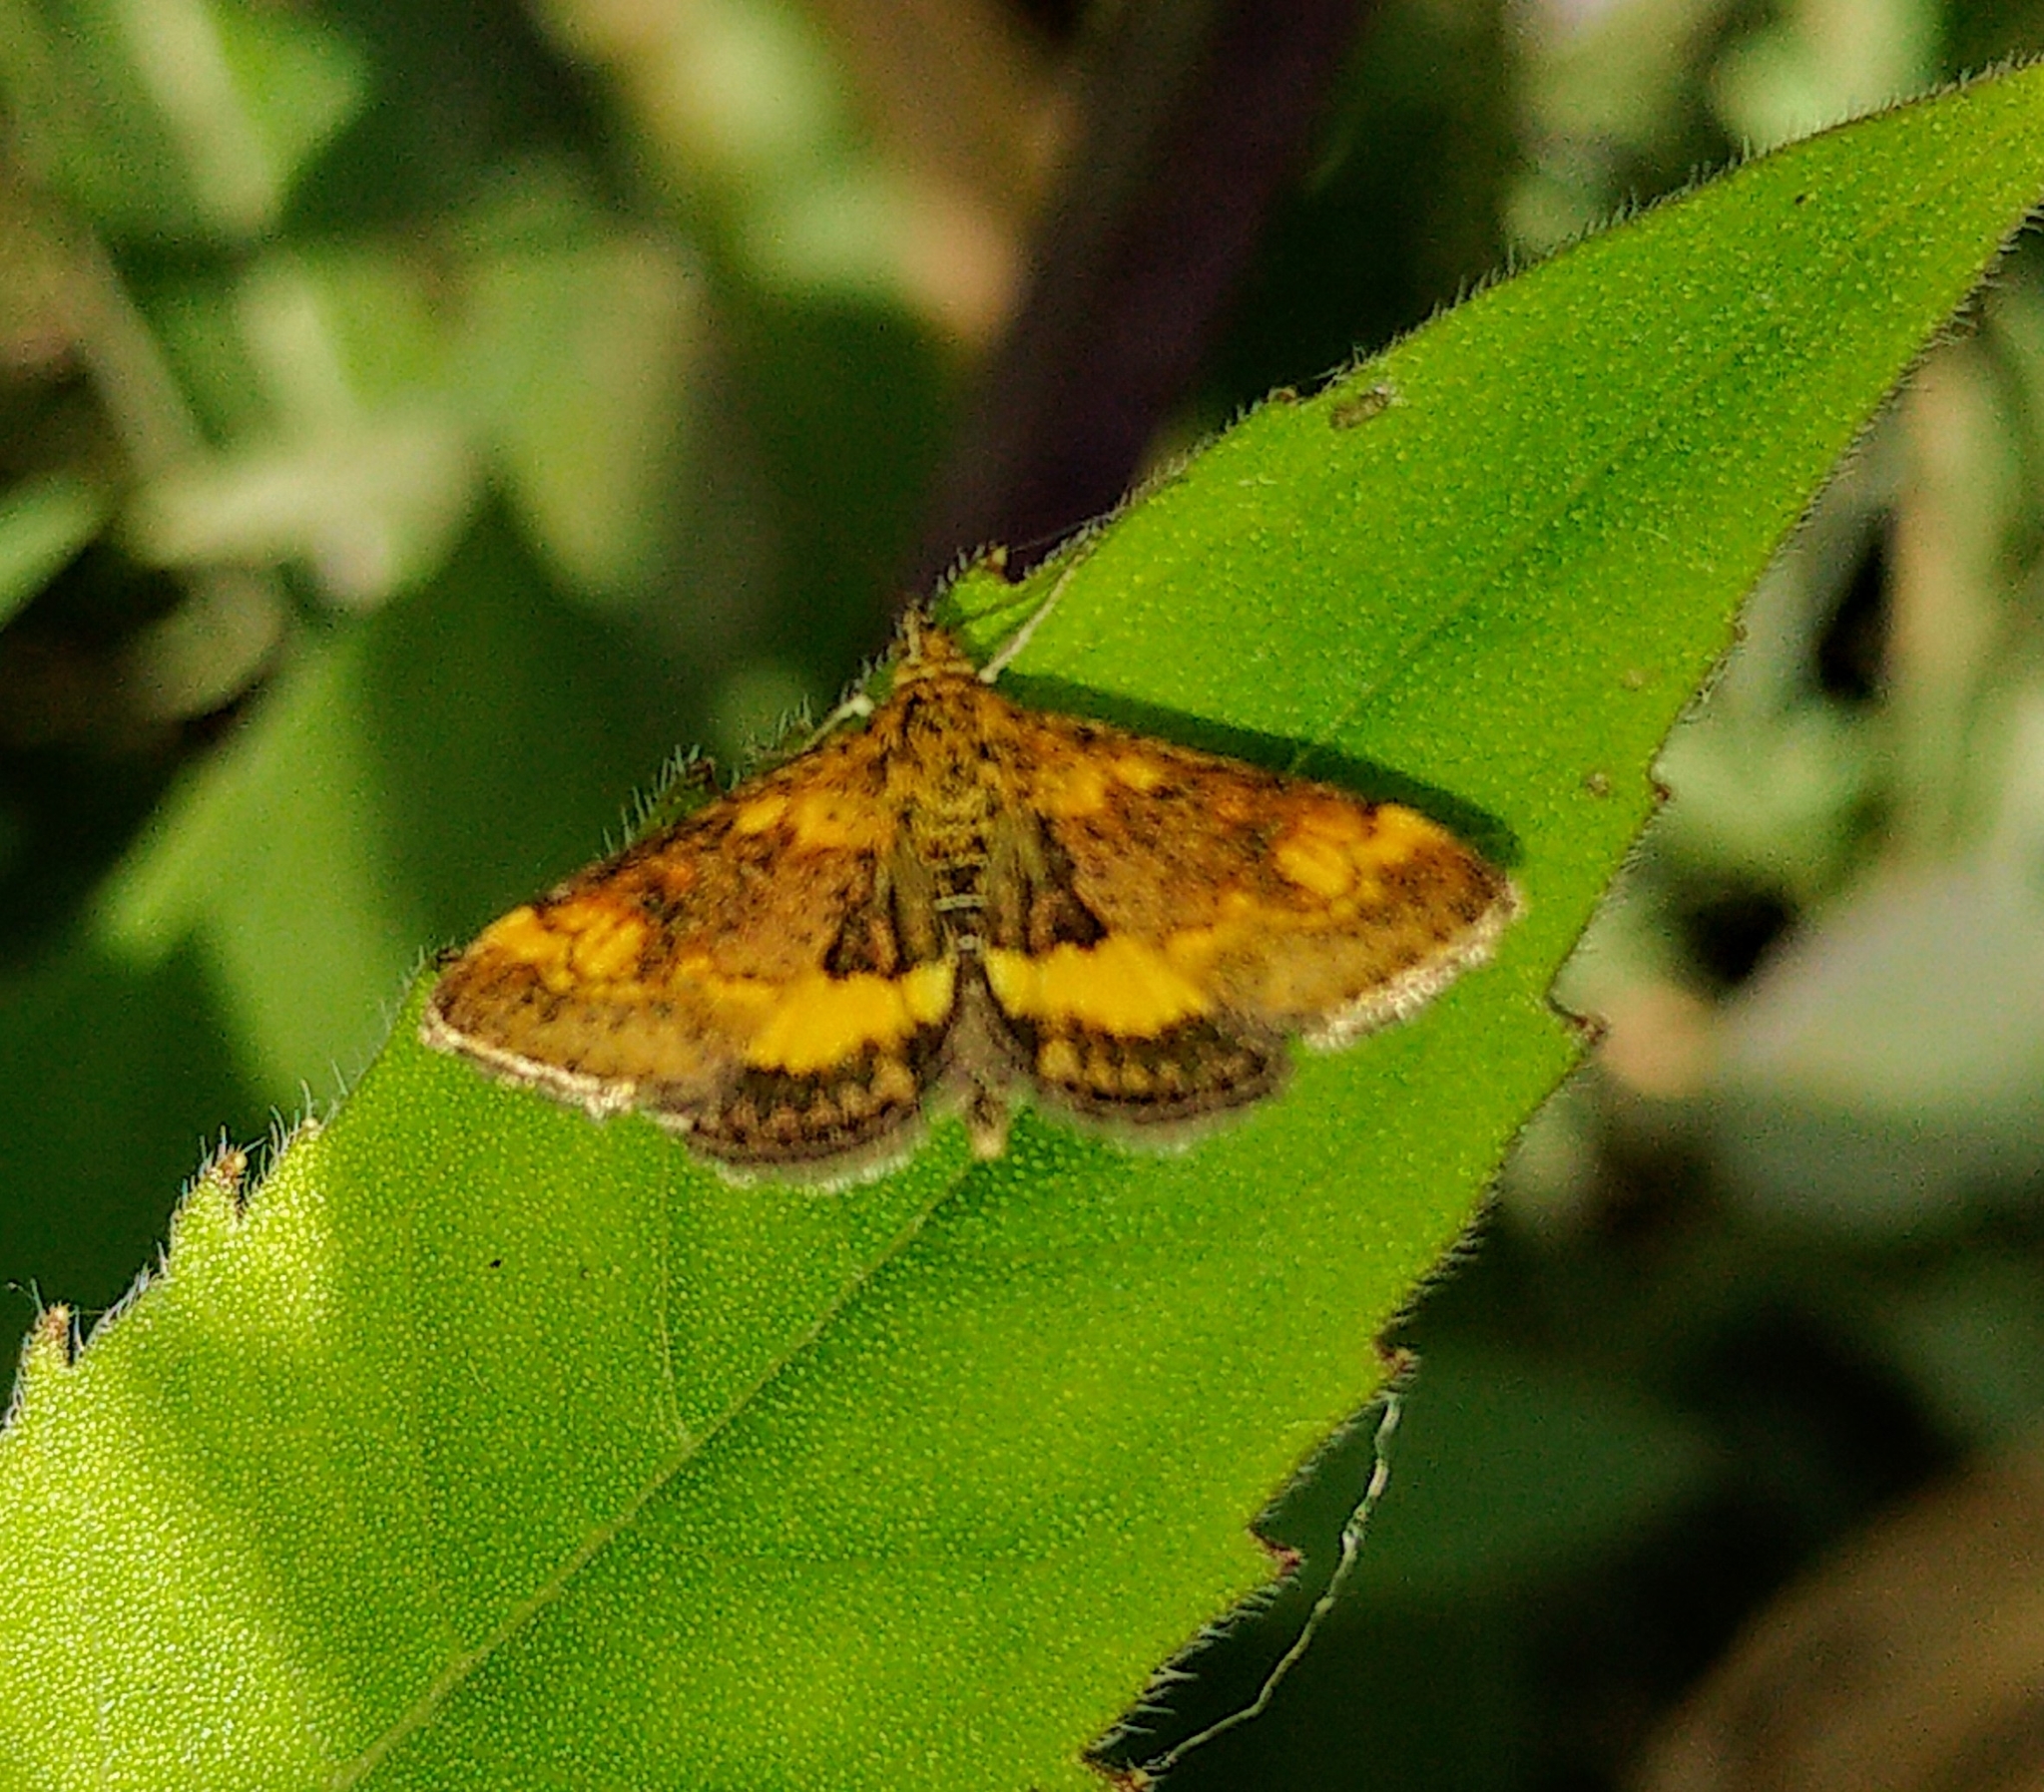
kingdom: Animalia
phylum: Arthropoda
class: Insecta
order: Lepidoptera
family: Crambidae
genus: Pyrausta
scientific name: Pyrausta orphisalis
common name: Orange mint moth
